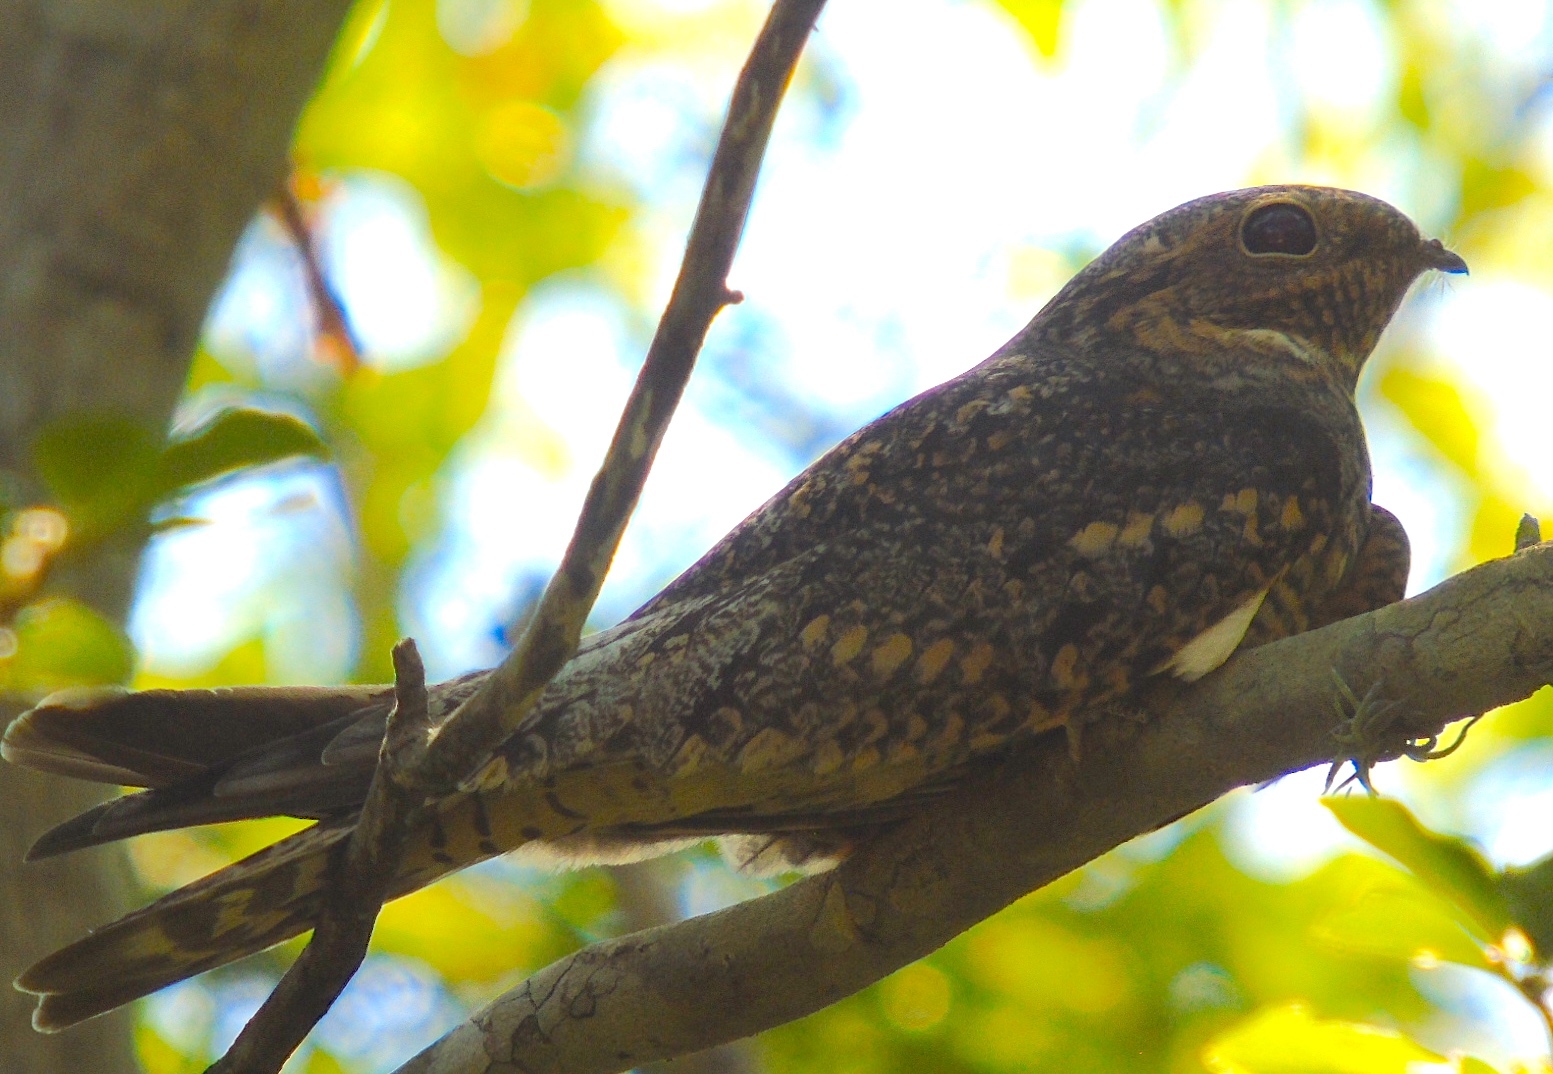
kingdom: Animalia
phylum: Chordata
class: Aves
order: Caprimulgiformes
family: Caprimulgidae
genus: Chordeiles
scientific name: Chordeiles
